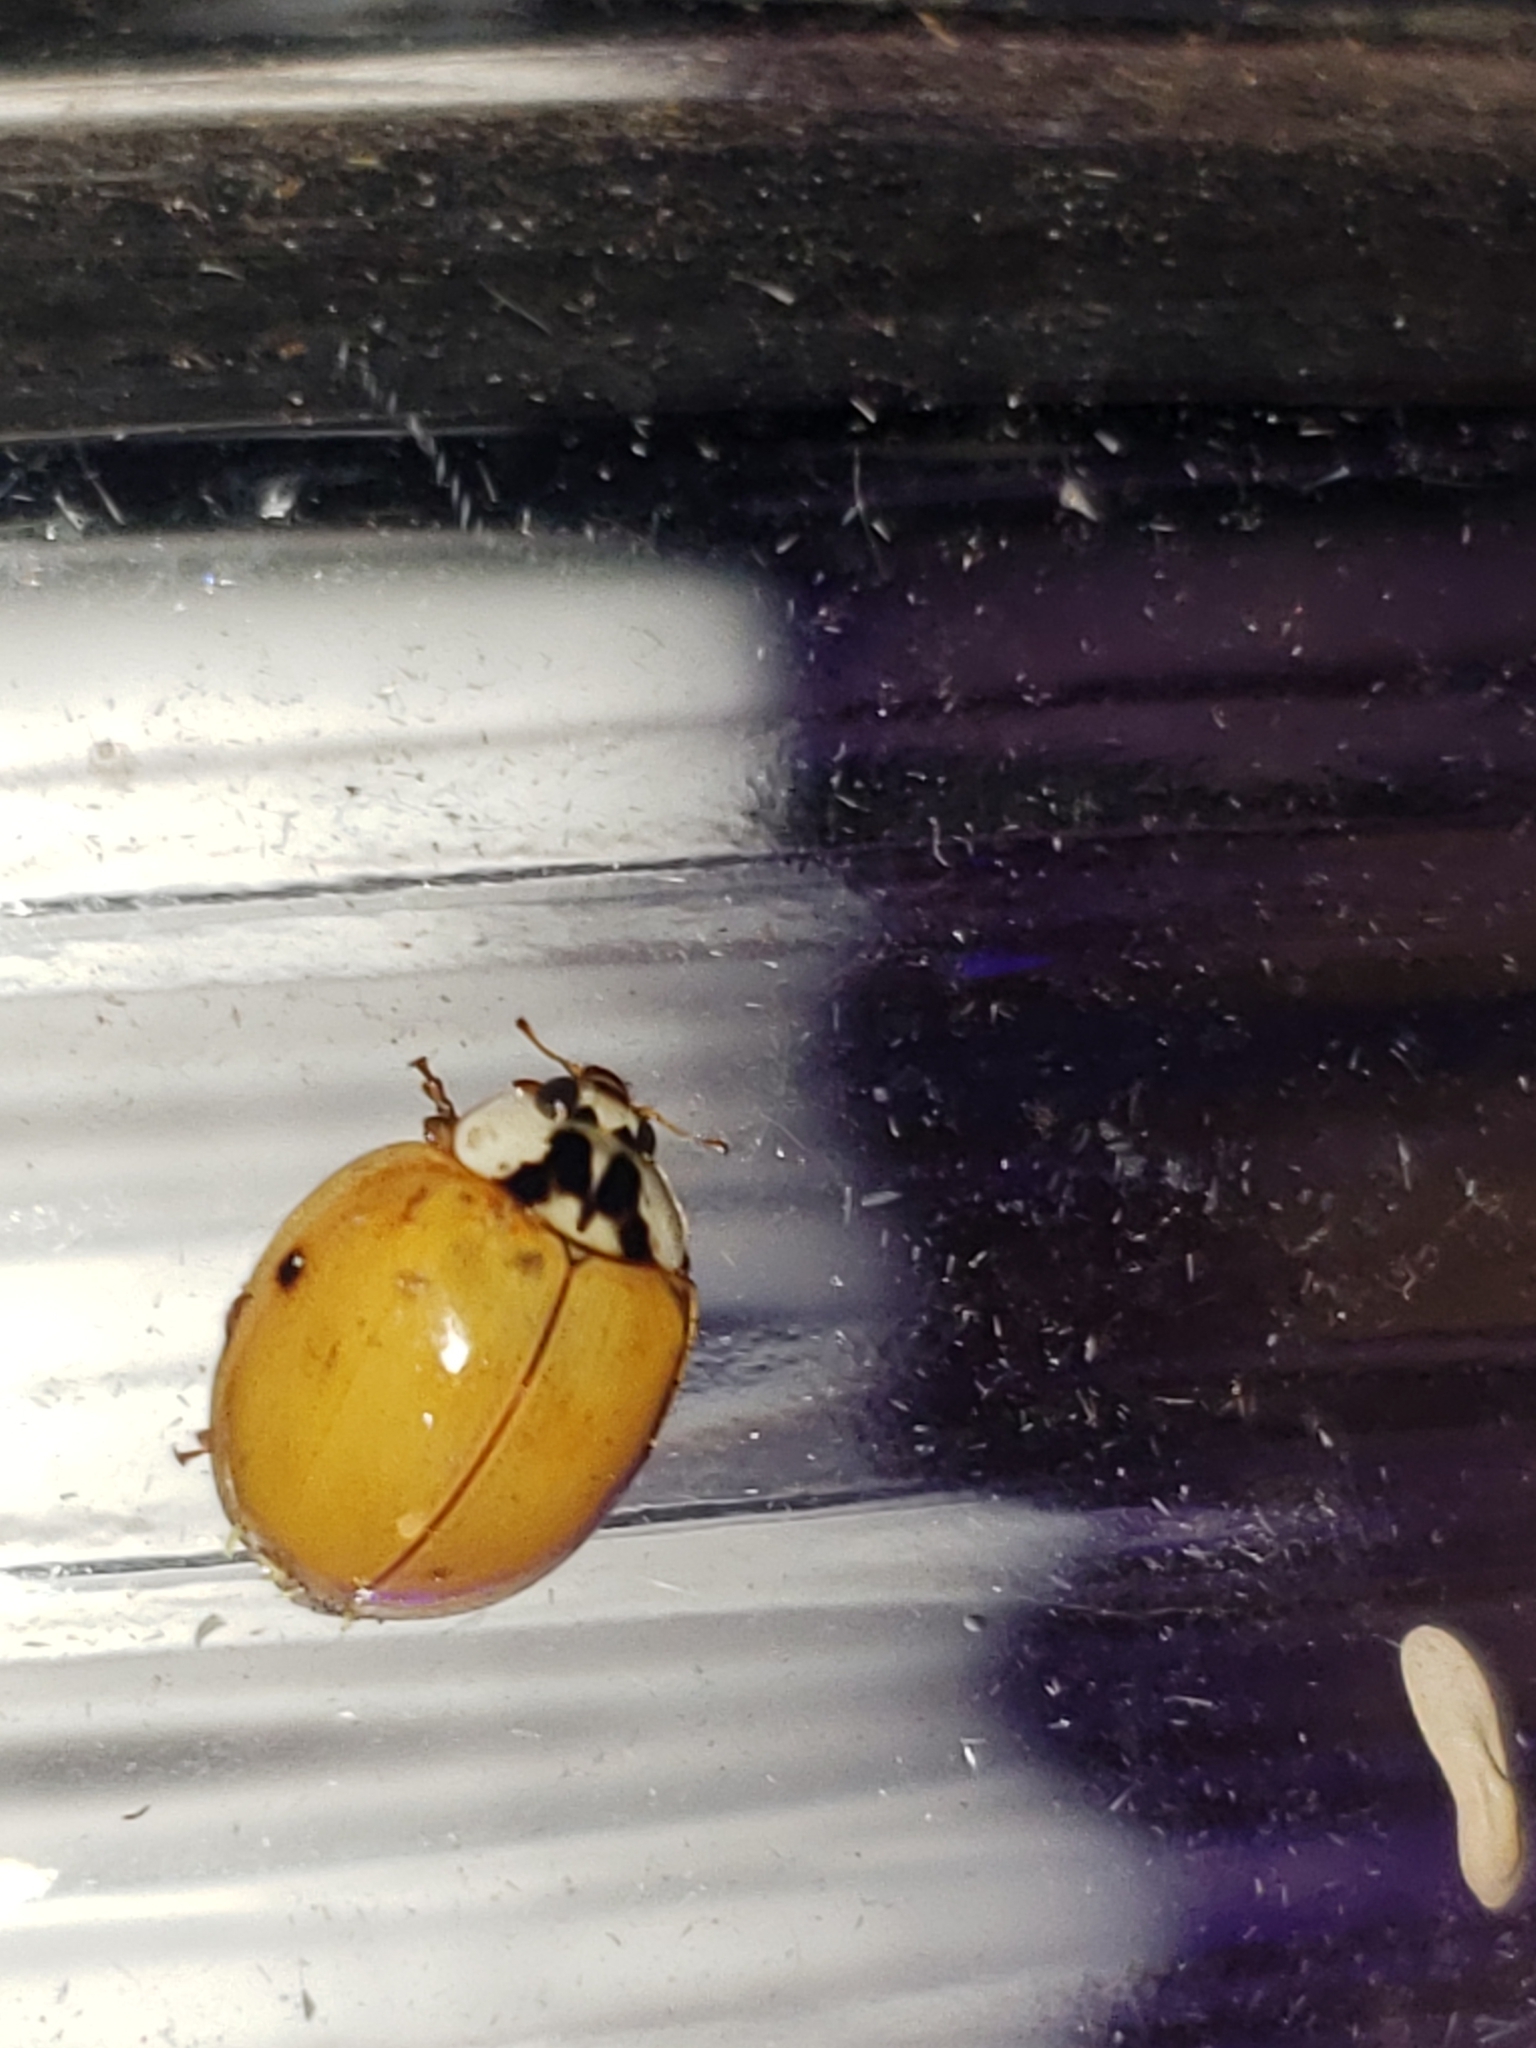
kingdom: Animalia
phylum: Arthropoda
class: Insecta
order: Coleoptera
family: Coccinellidae
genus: Harmonia
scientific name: Harmonia axyridis
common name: Harlequin ladybird
